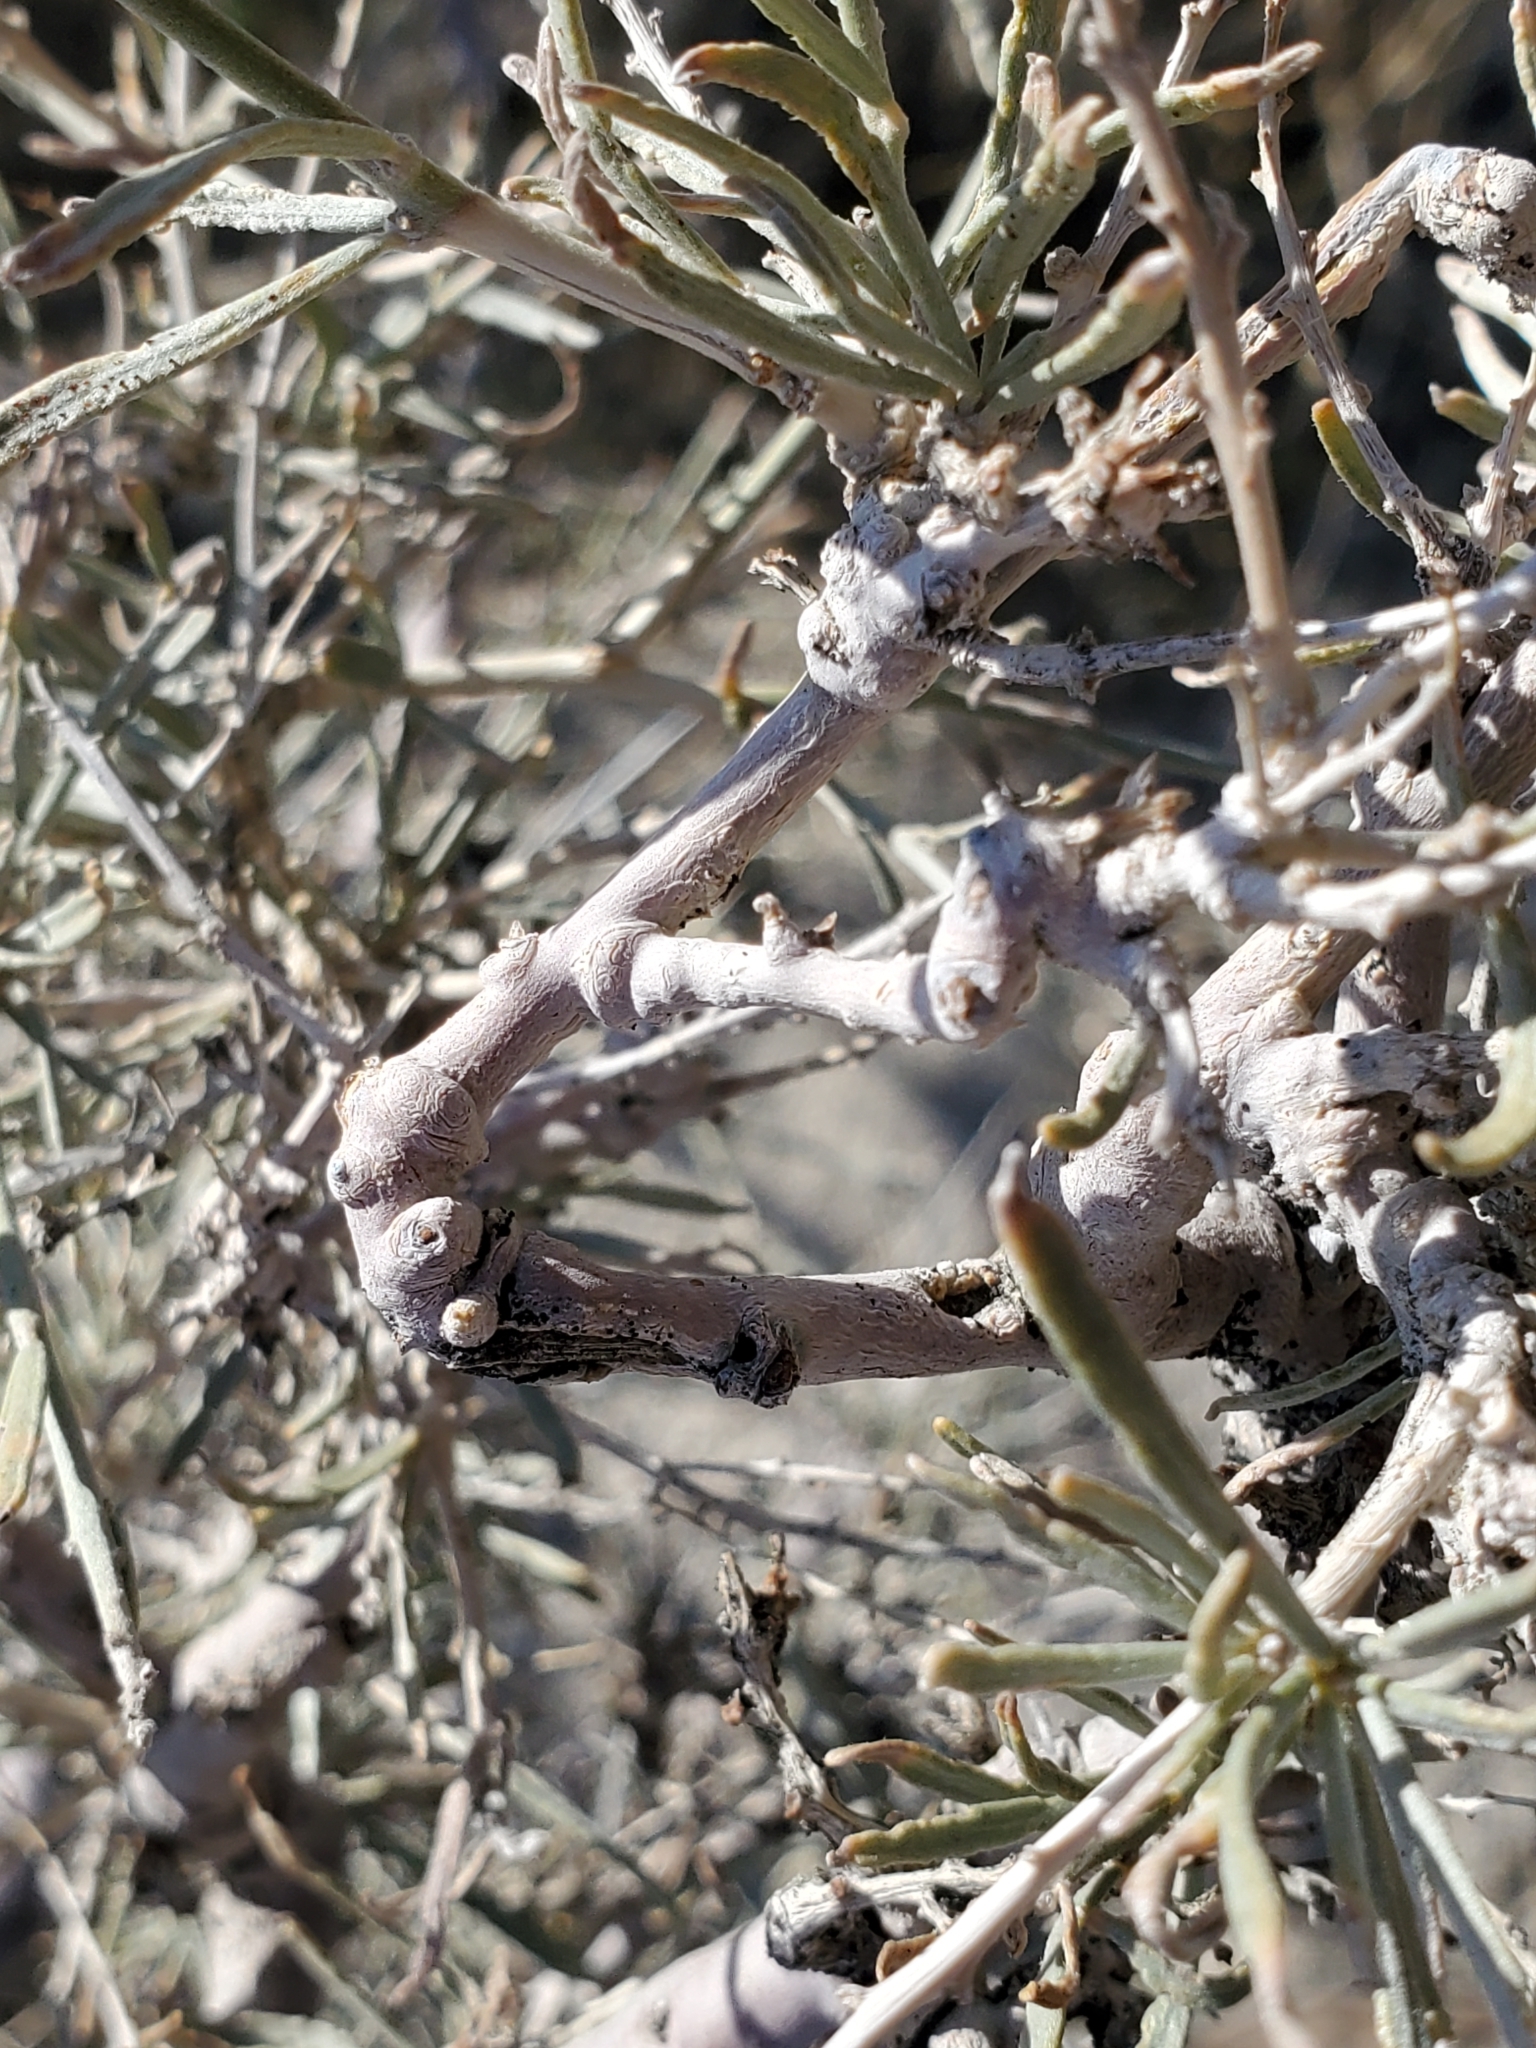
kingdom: Plantae
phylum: Tracheophyta
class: Magnoliopsida
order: Fabales
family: Fabaceae
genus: Psorothamnus
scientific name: Psorothamnus schottii
